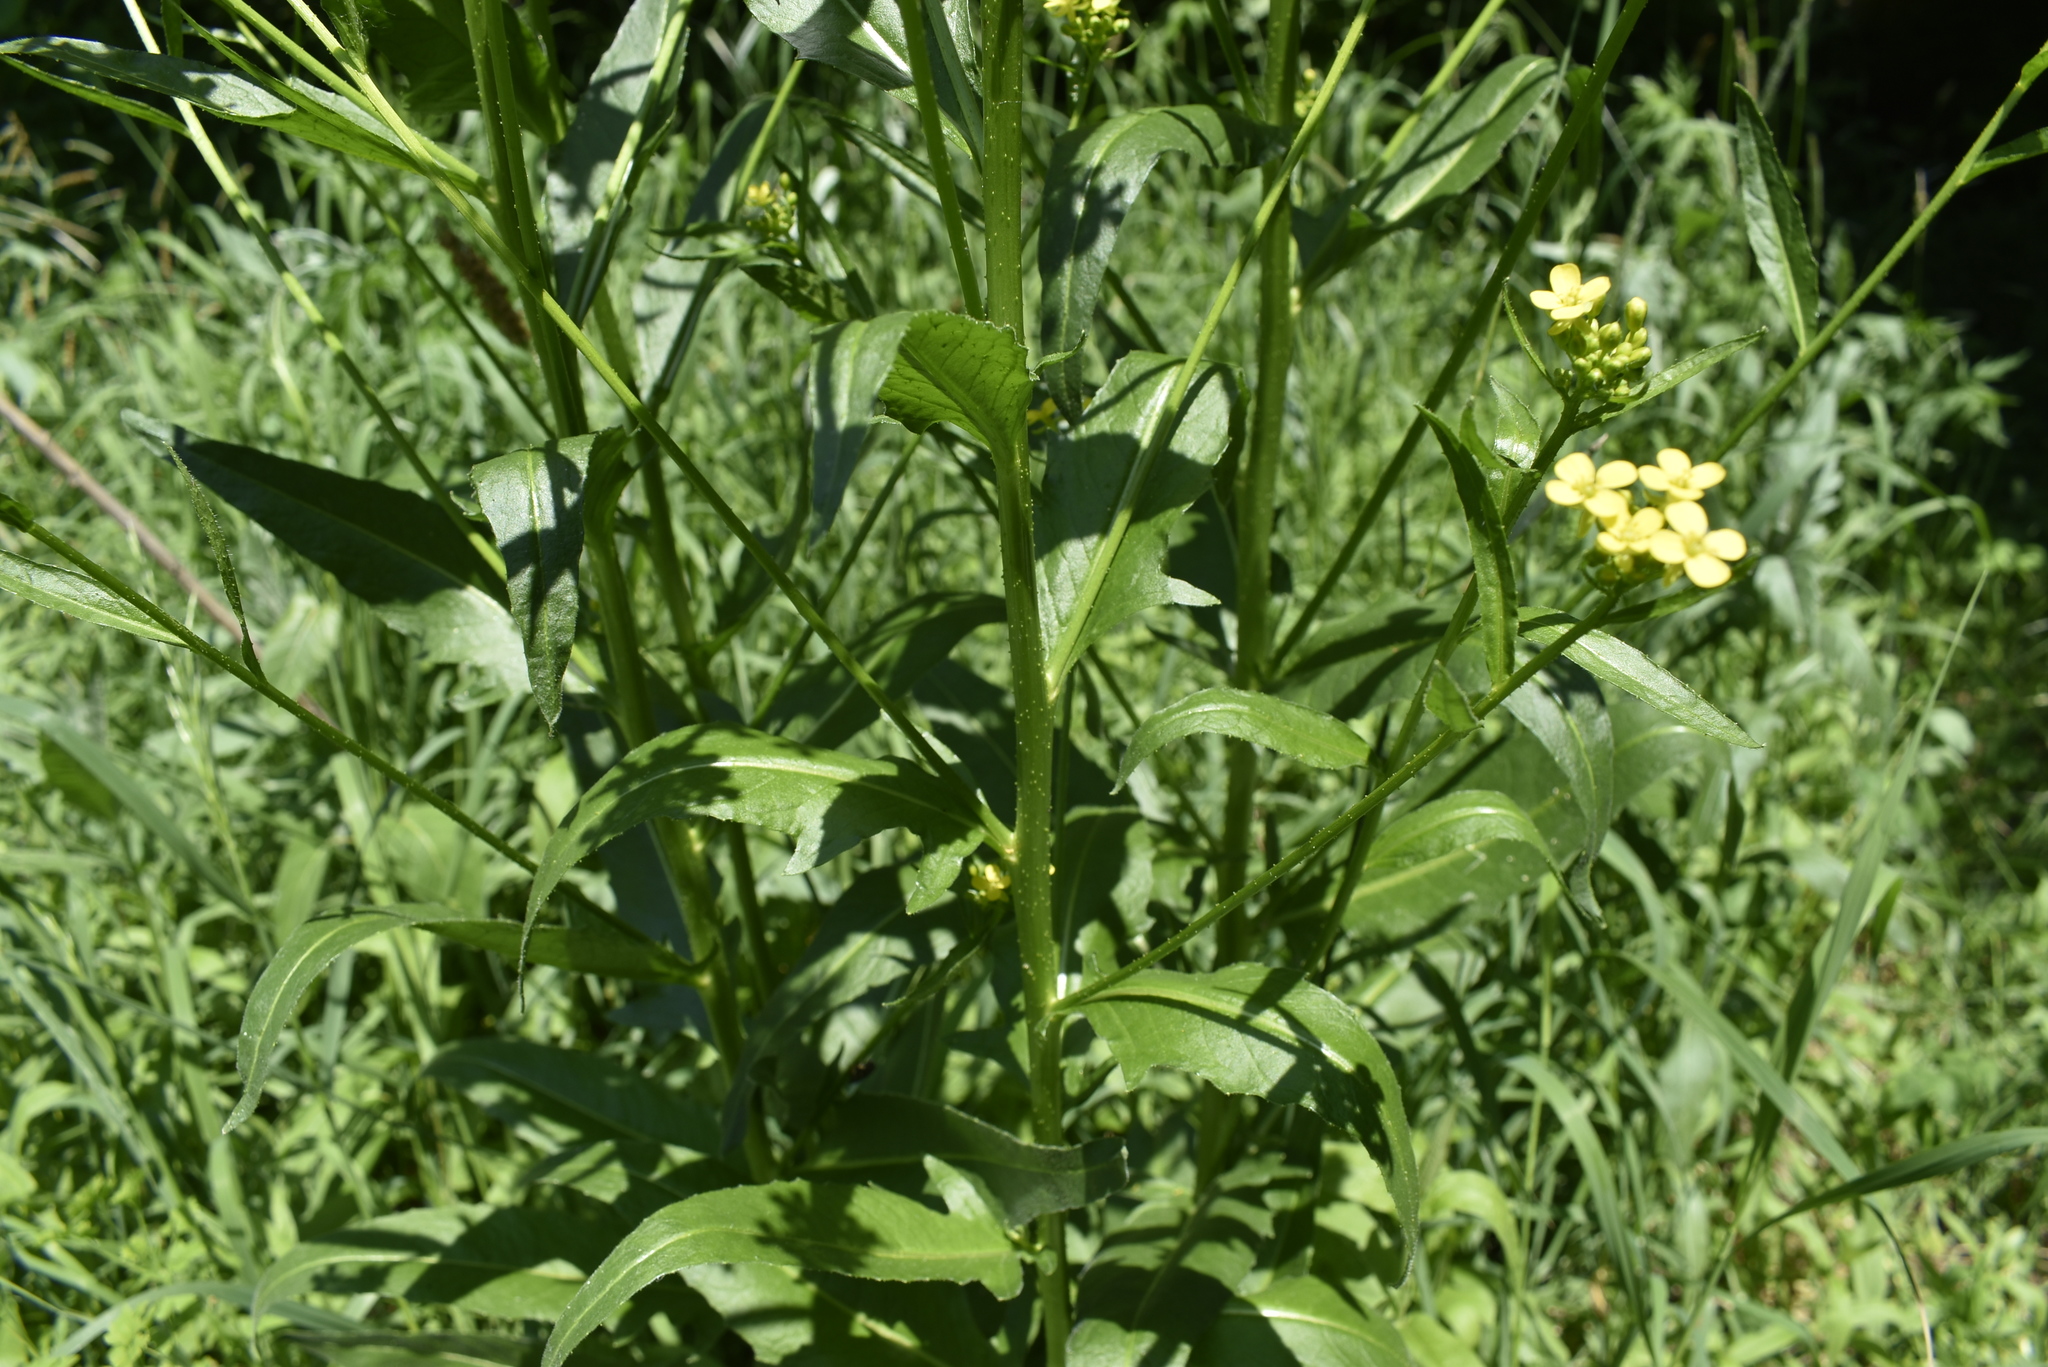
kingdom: Plantae
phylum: Tracheophyta
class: Magnoliopsida
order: Brassicales
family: Brassicaceae
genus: Bunias
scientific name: Bunias orientalis
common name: Warty-cabbage
